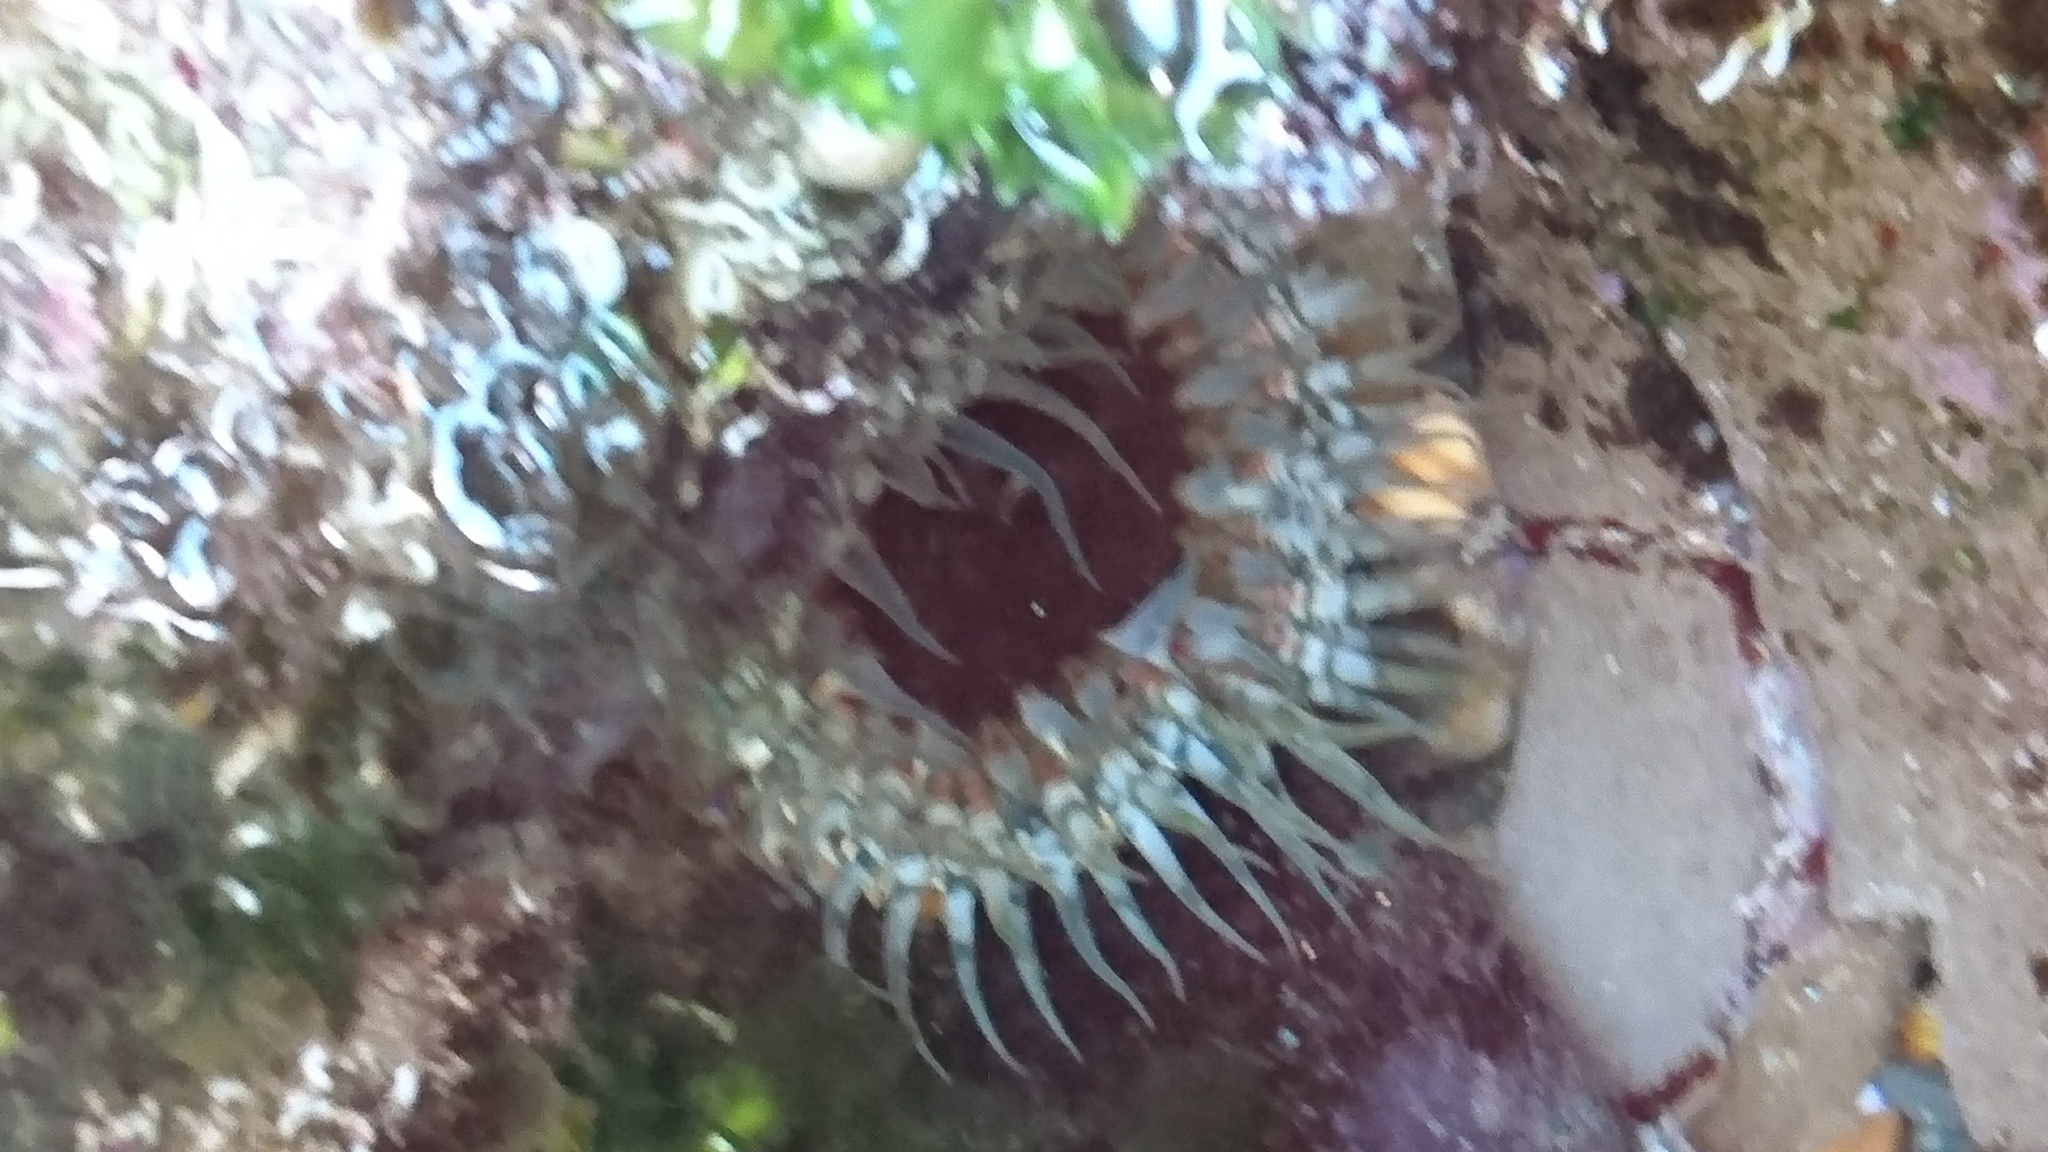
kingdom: Animalia
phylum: Cnidaria
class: Anthozoa
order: Actiniaria
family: Actiniidae
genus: Oulactis
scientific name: Oulactis muscosa
